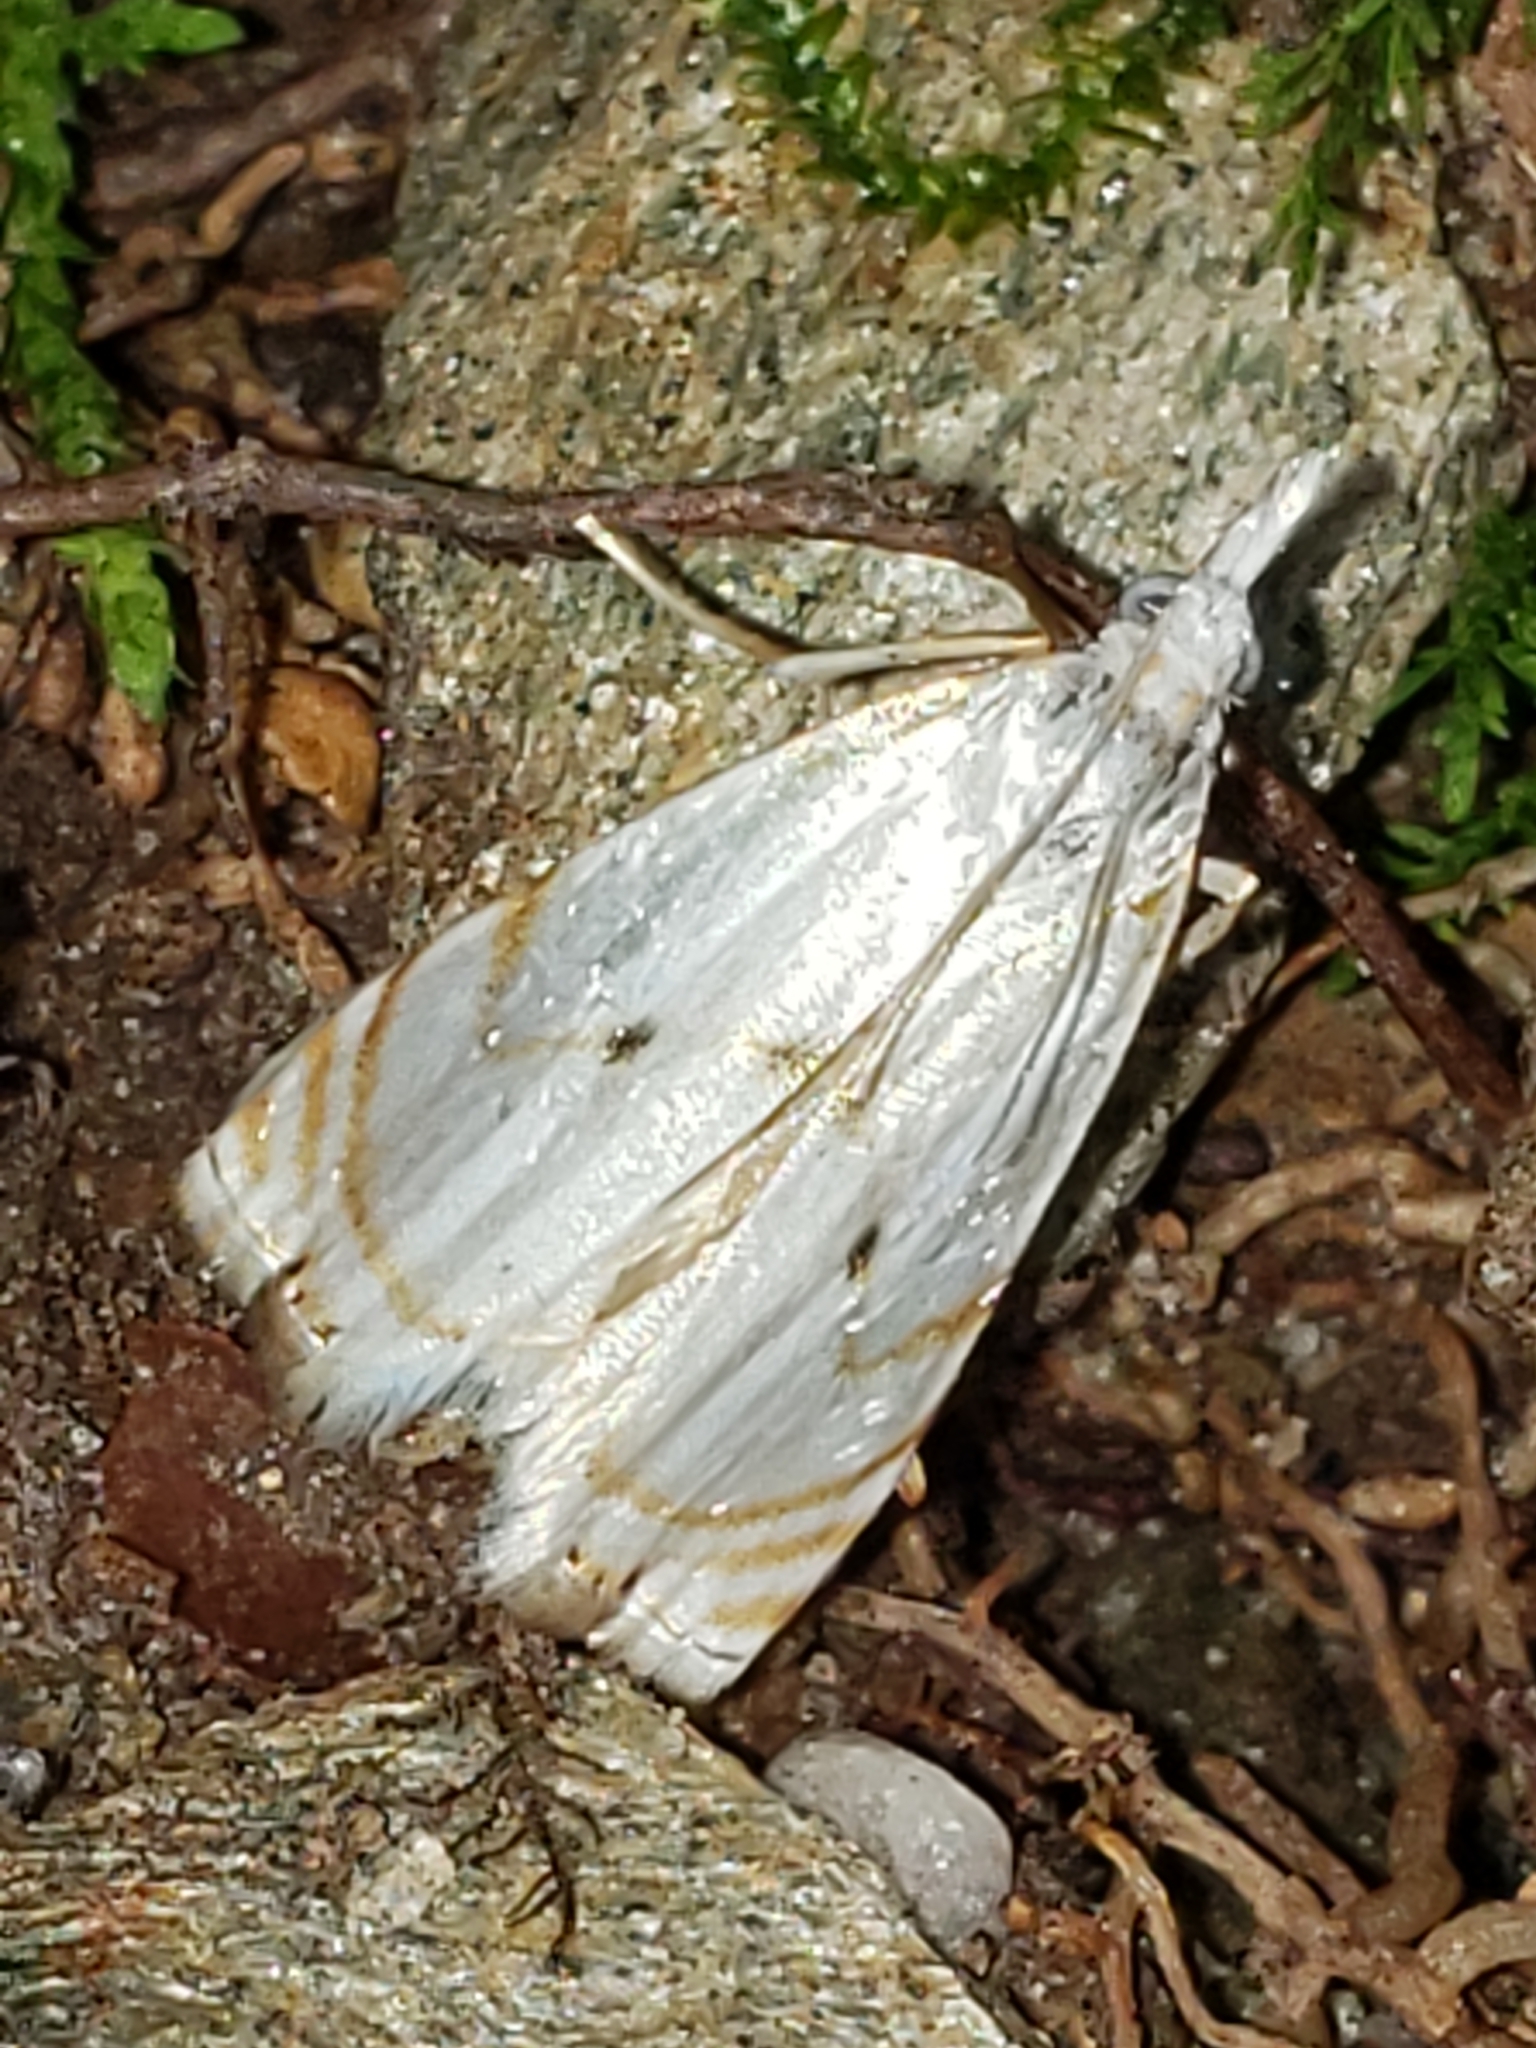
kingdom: Animalia
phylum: Arthropoda
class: Insecta
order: Lepidoptera
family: Crambidae
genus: Microcrambus
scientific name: Microcrambus biguttellus
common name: Gold-stripe grass-veneer moth
